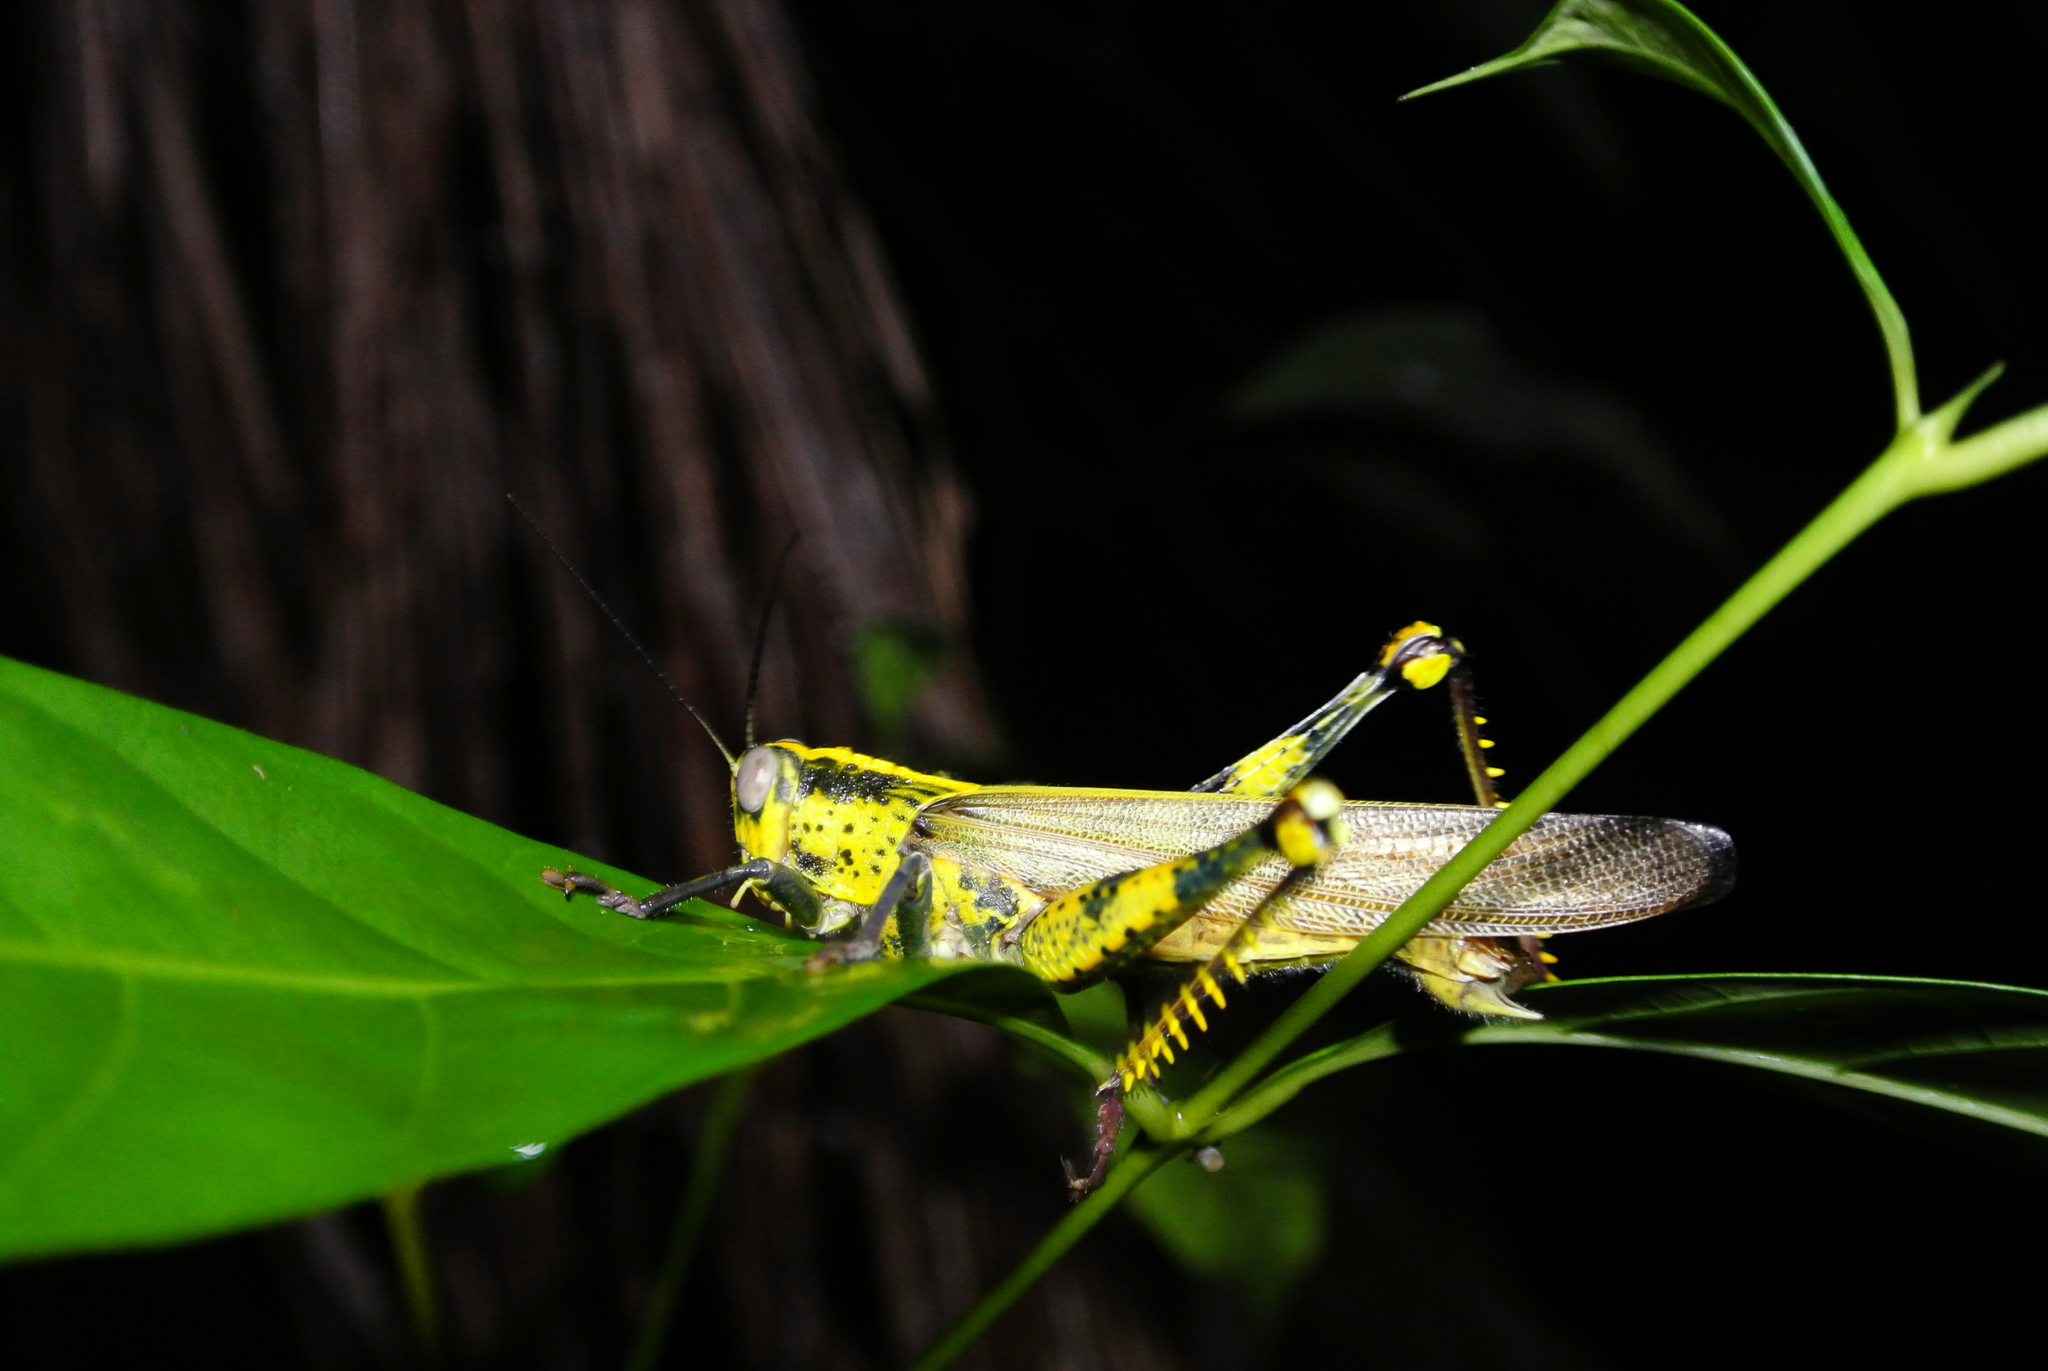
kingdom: Animalia
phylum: Arthropoda
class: Insecta
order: Orthoptera
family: Acrididae
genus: Valanga
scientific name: Valanga nigricornis
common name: Javanese bird grasshopper
